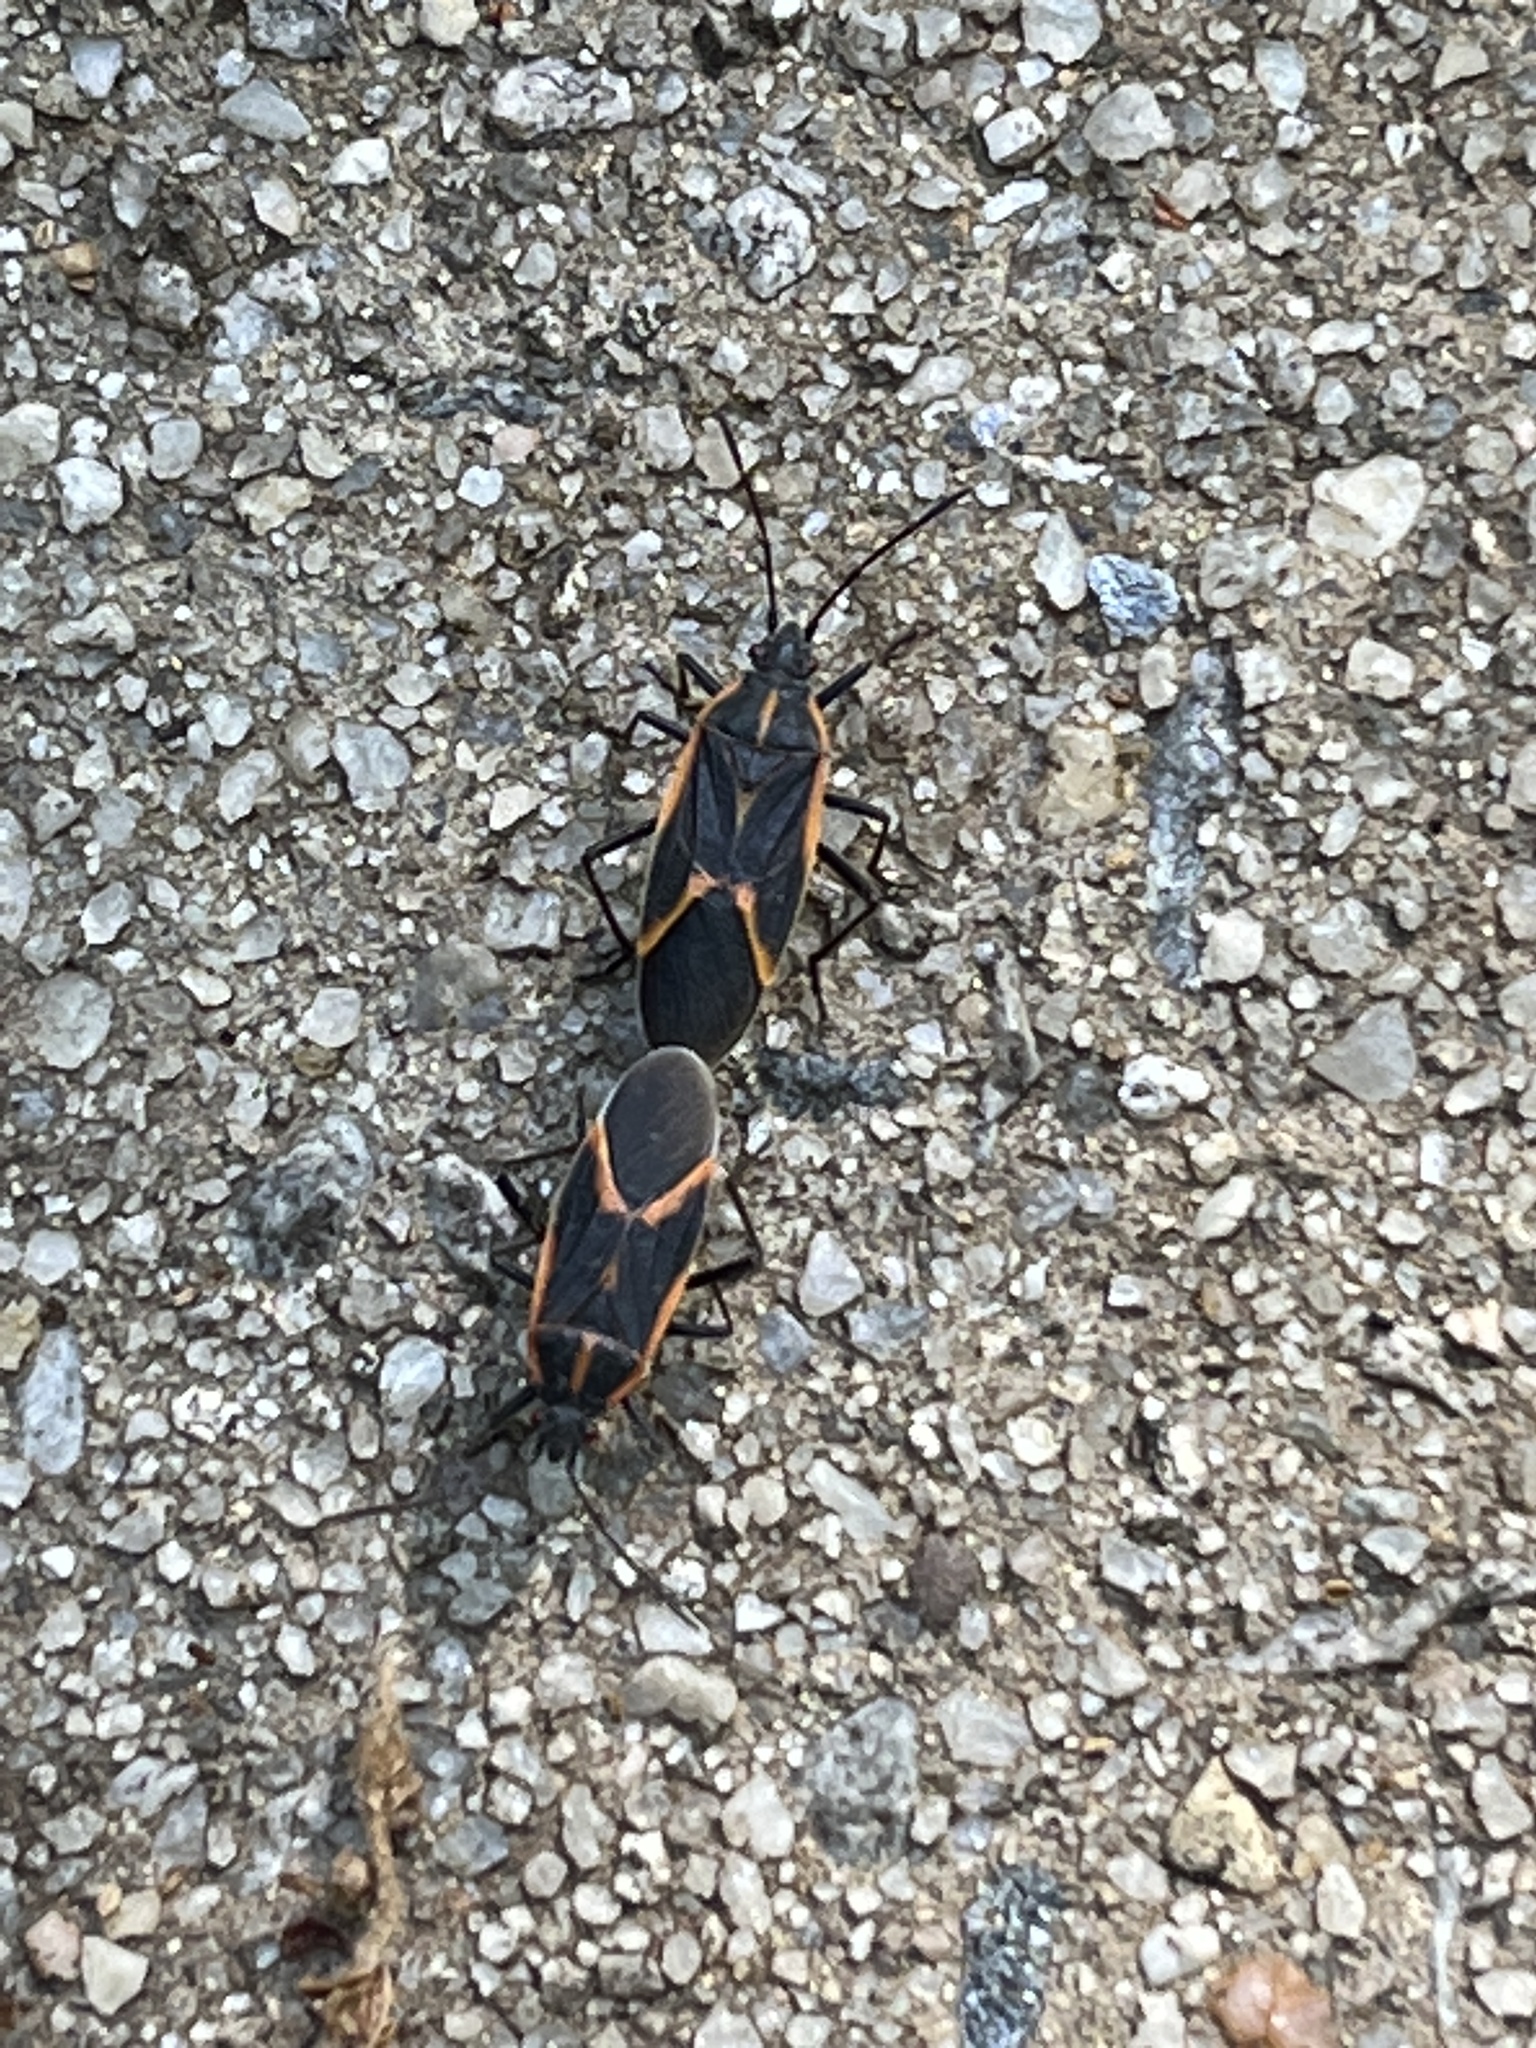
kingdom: Animalia
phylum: Arthropoda
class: Insecta
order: Hemiptera
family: Rhopalidae
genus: Boisea
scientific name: Boisea trivittata
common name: Boxelder bug
